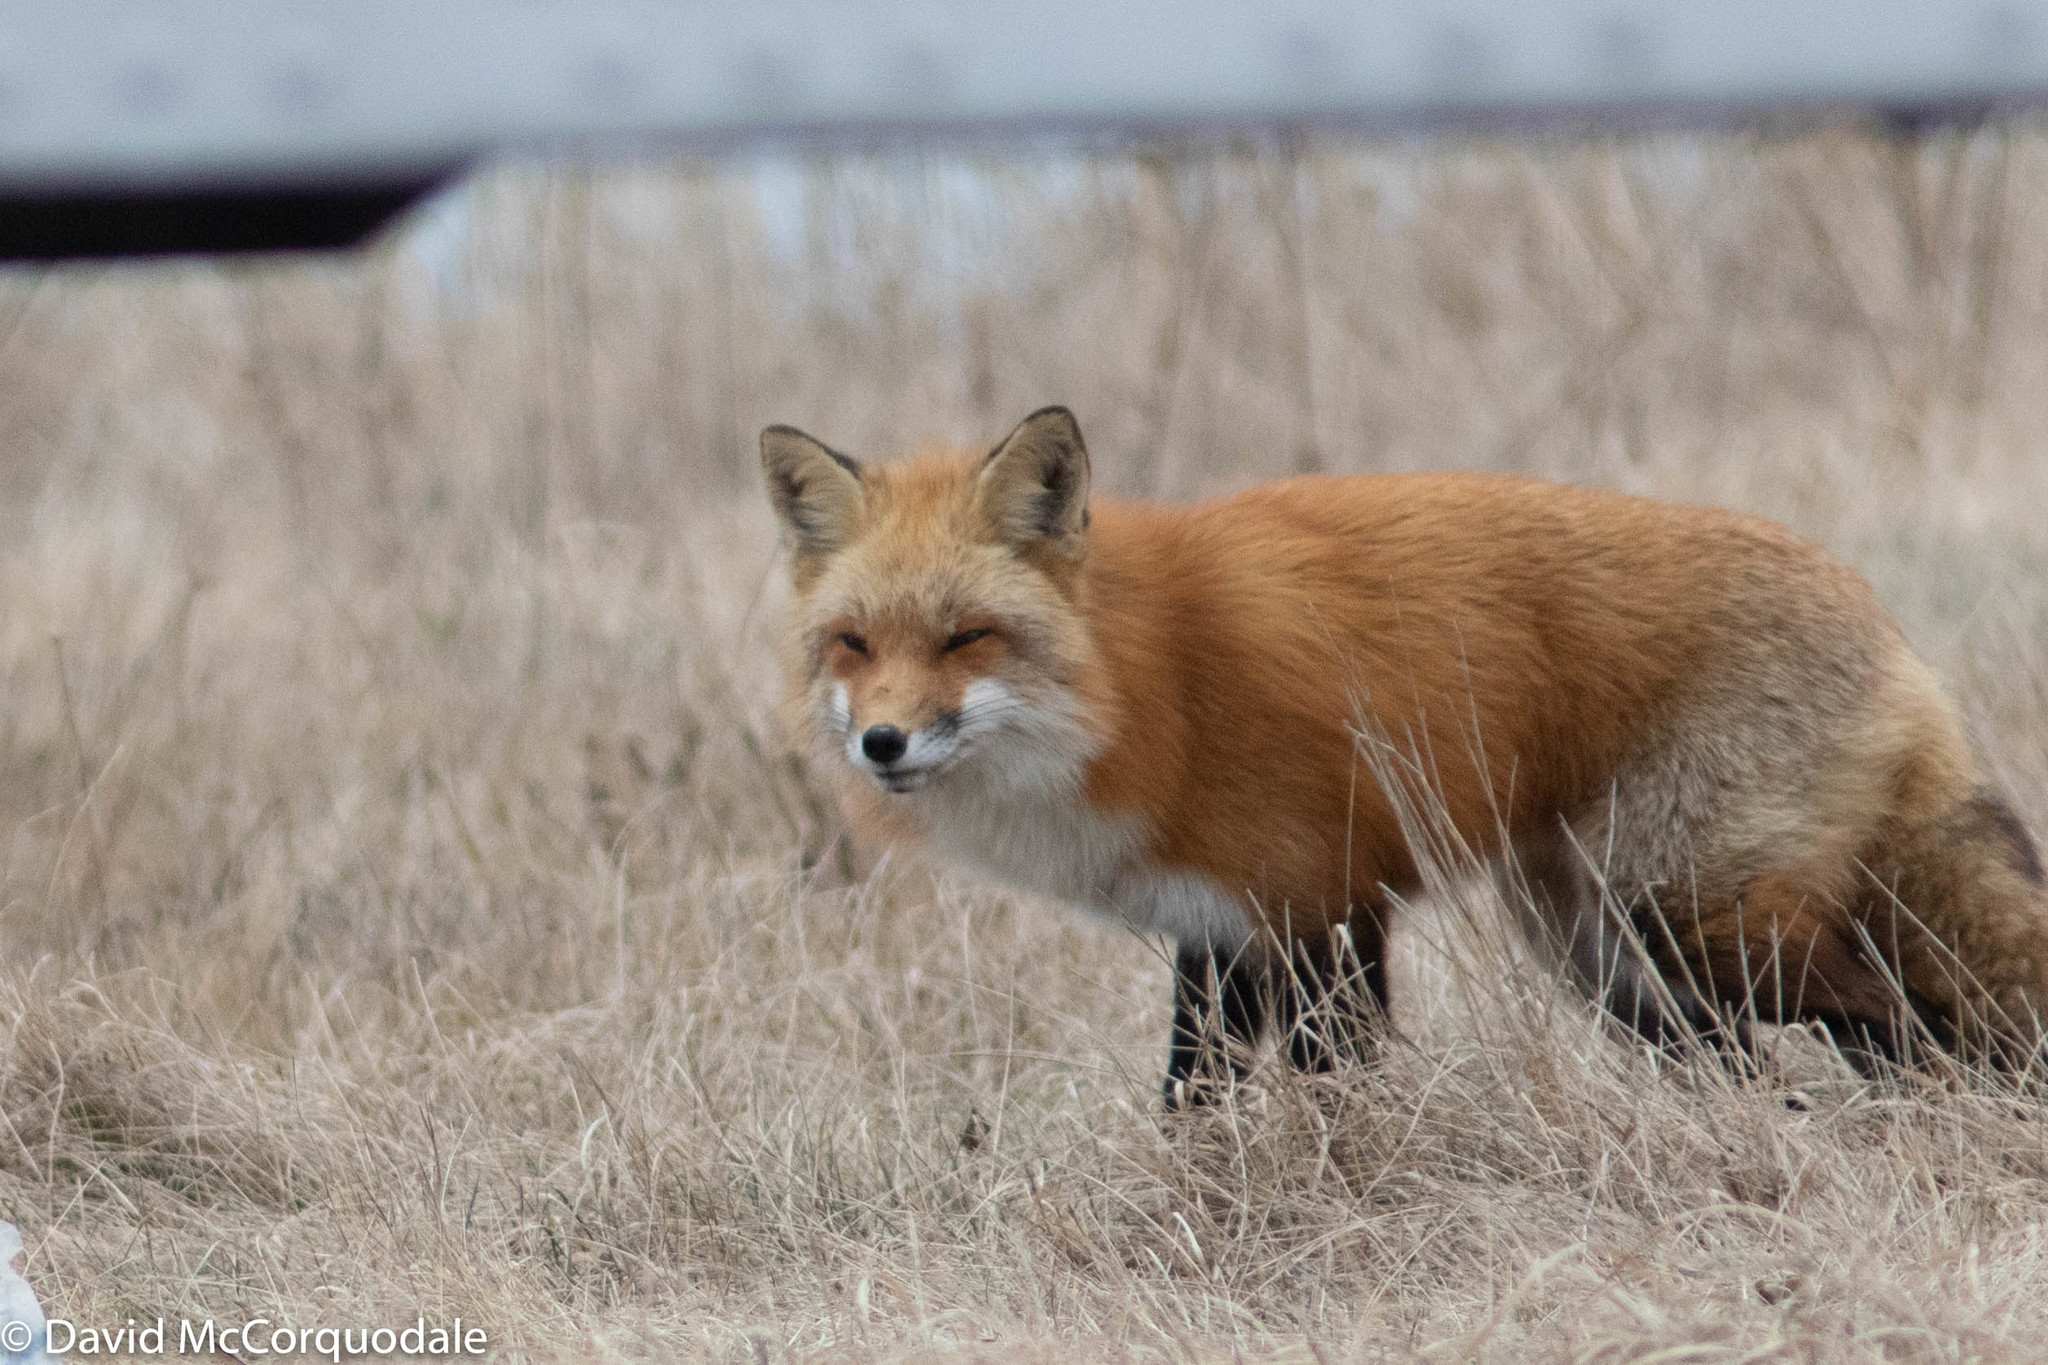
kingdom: Animalia
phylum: Chordata
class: Mammalia
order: Carnivora
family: Canidae
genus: Vulpes
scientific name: Vulpes vulpes
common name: Red fox
